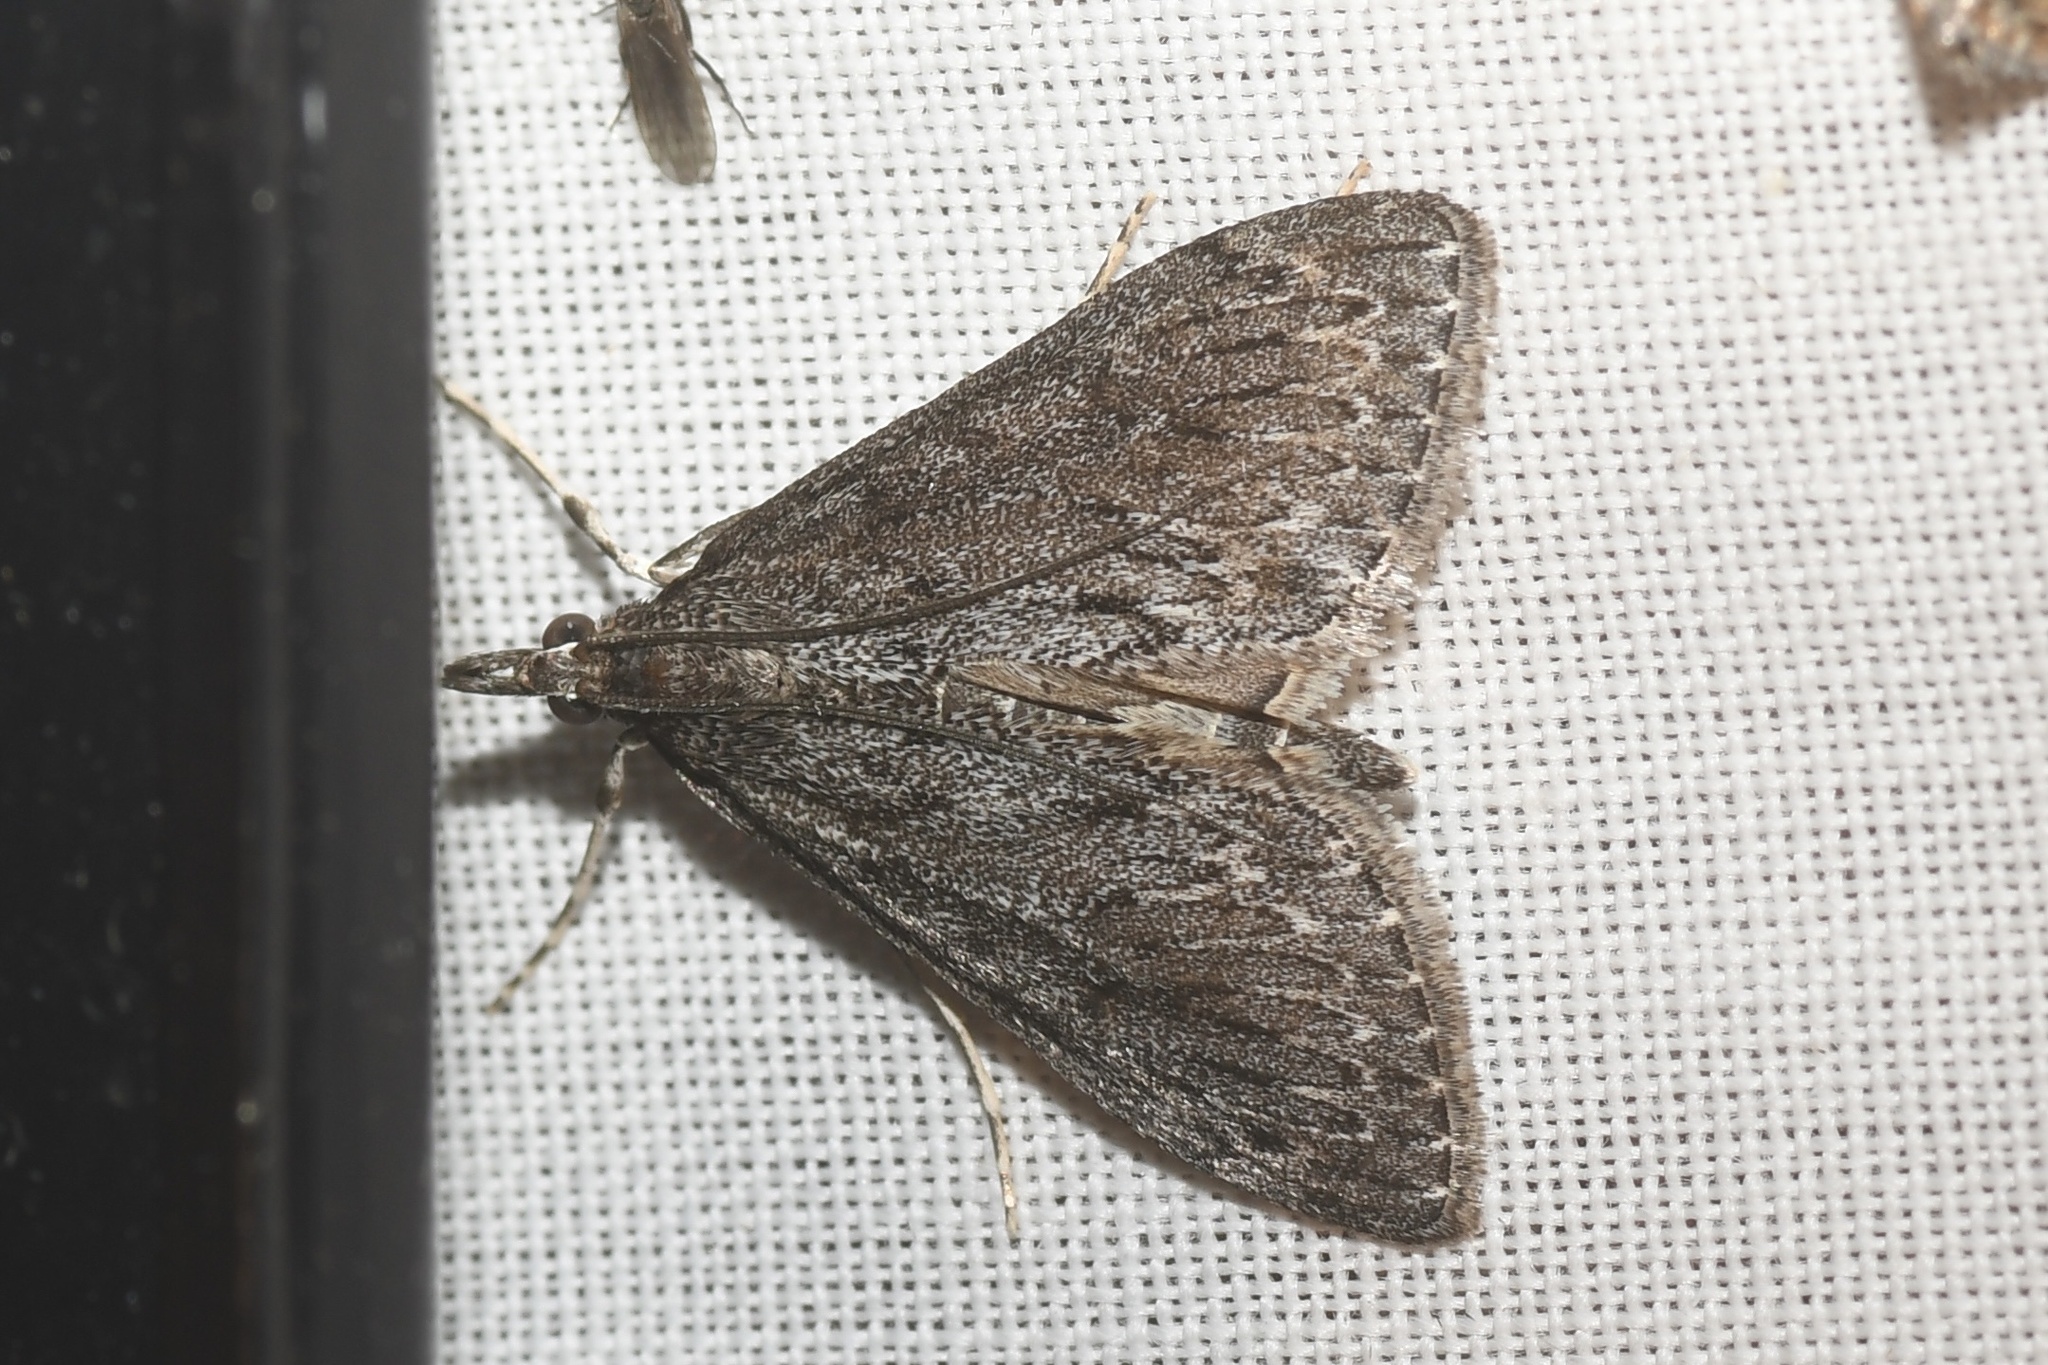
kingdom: Animalia
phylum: Arthropoda
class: Insecta
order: Lepidoptera
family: Crambidae
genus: Saucrobotys
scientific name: Saucrobotys fumoferalis
